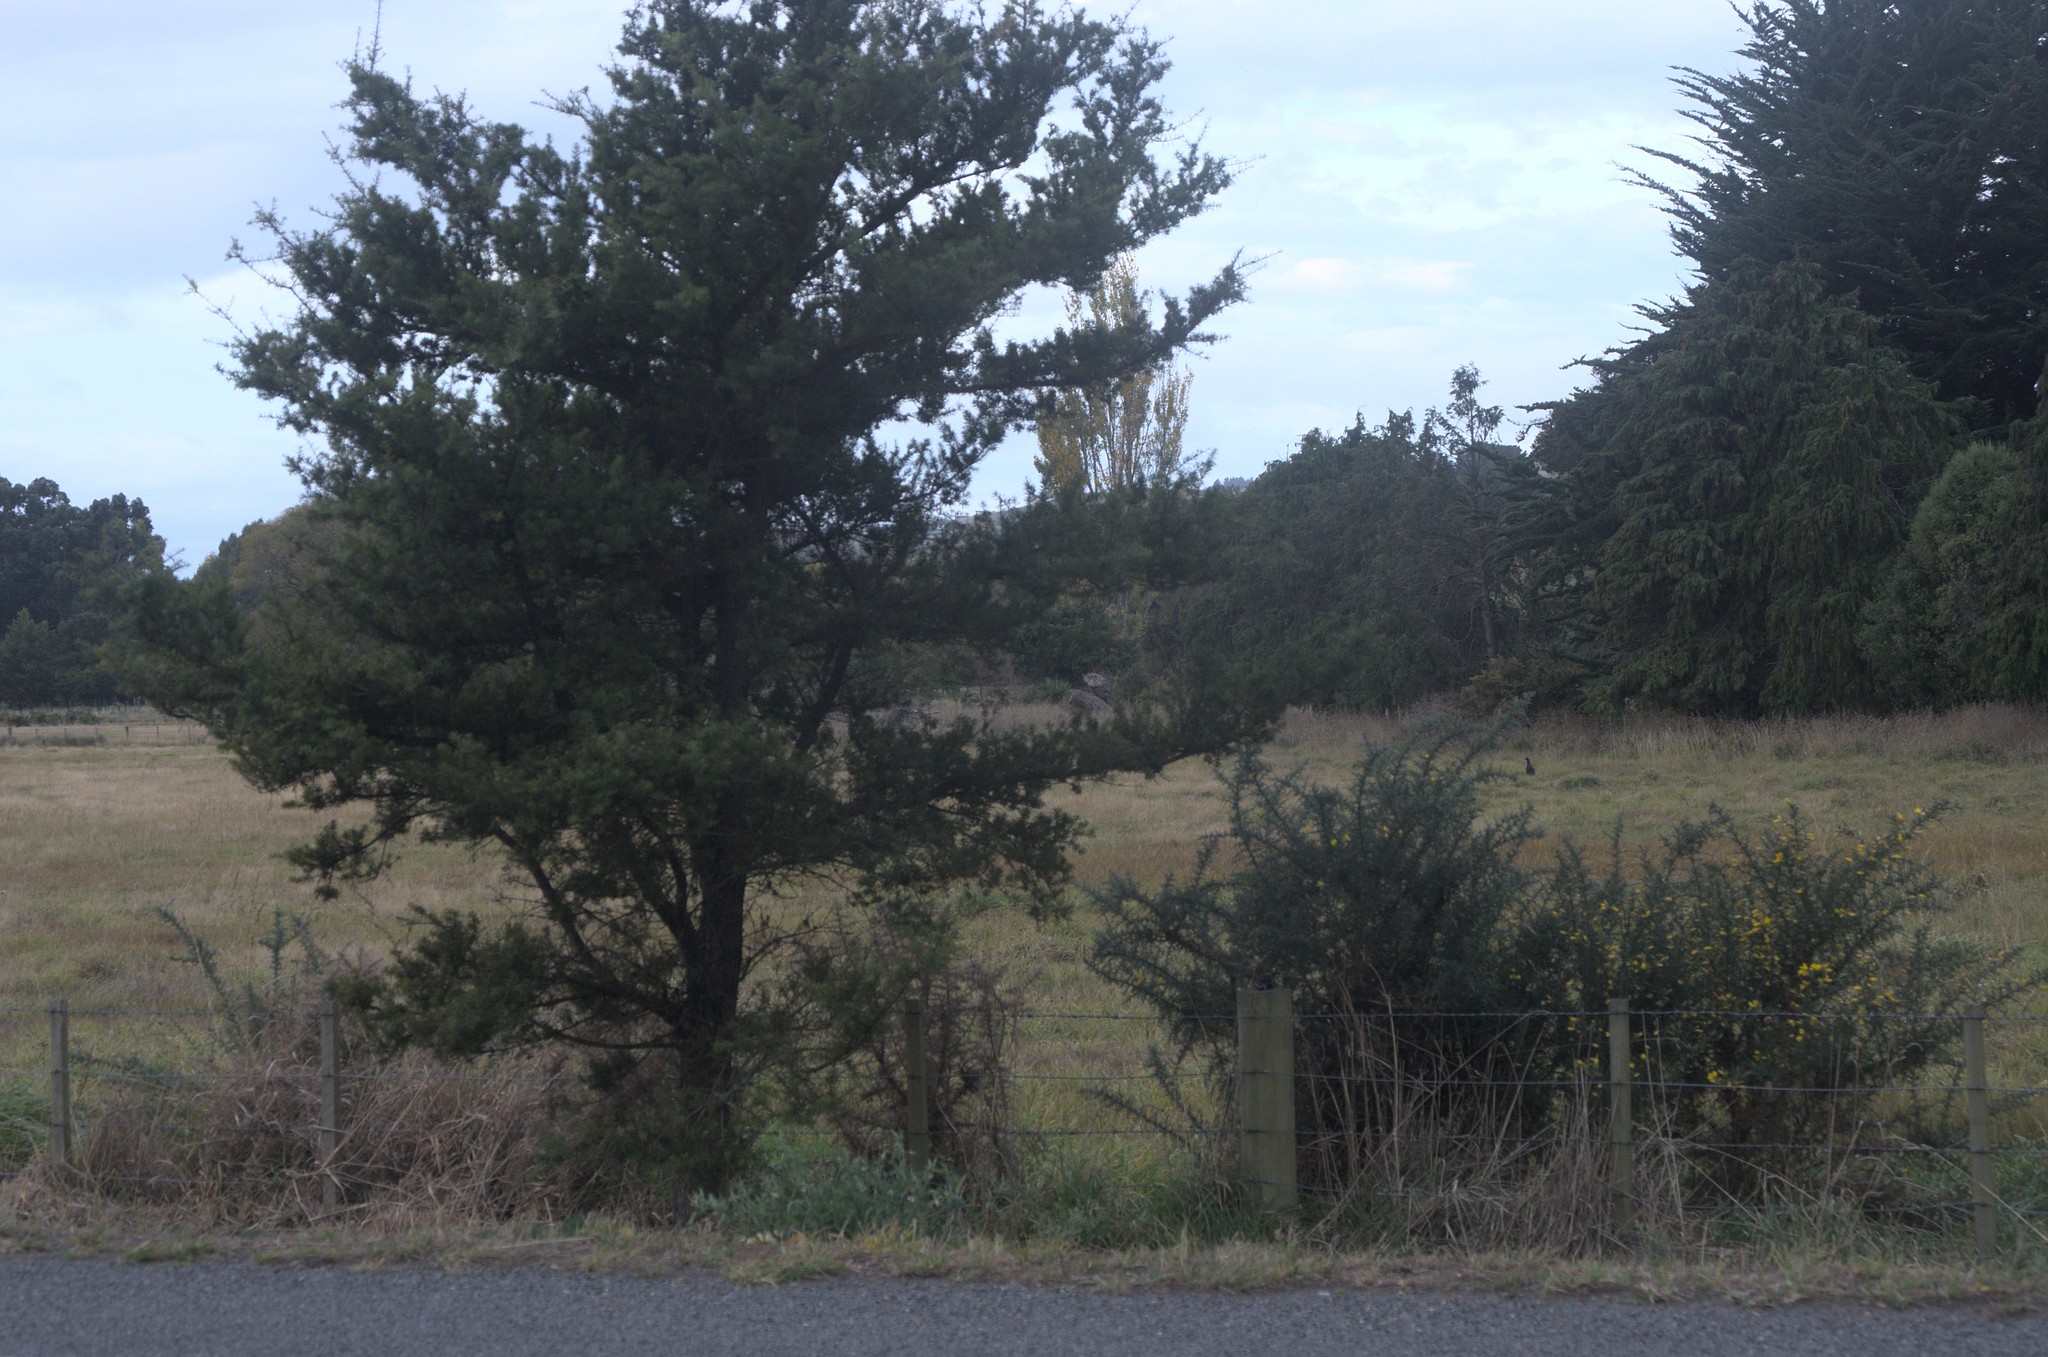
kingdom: Plantae
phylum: Tracheophyta
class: Pinopsida
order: Pinales
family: Podocarpaceae
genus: Podocarpus
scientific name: Podocarpus totara
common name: Totara
